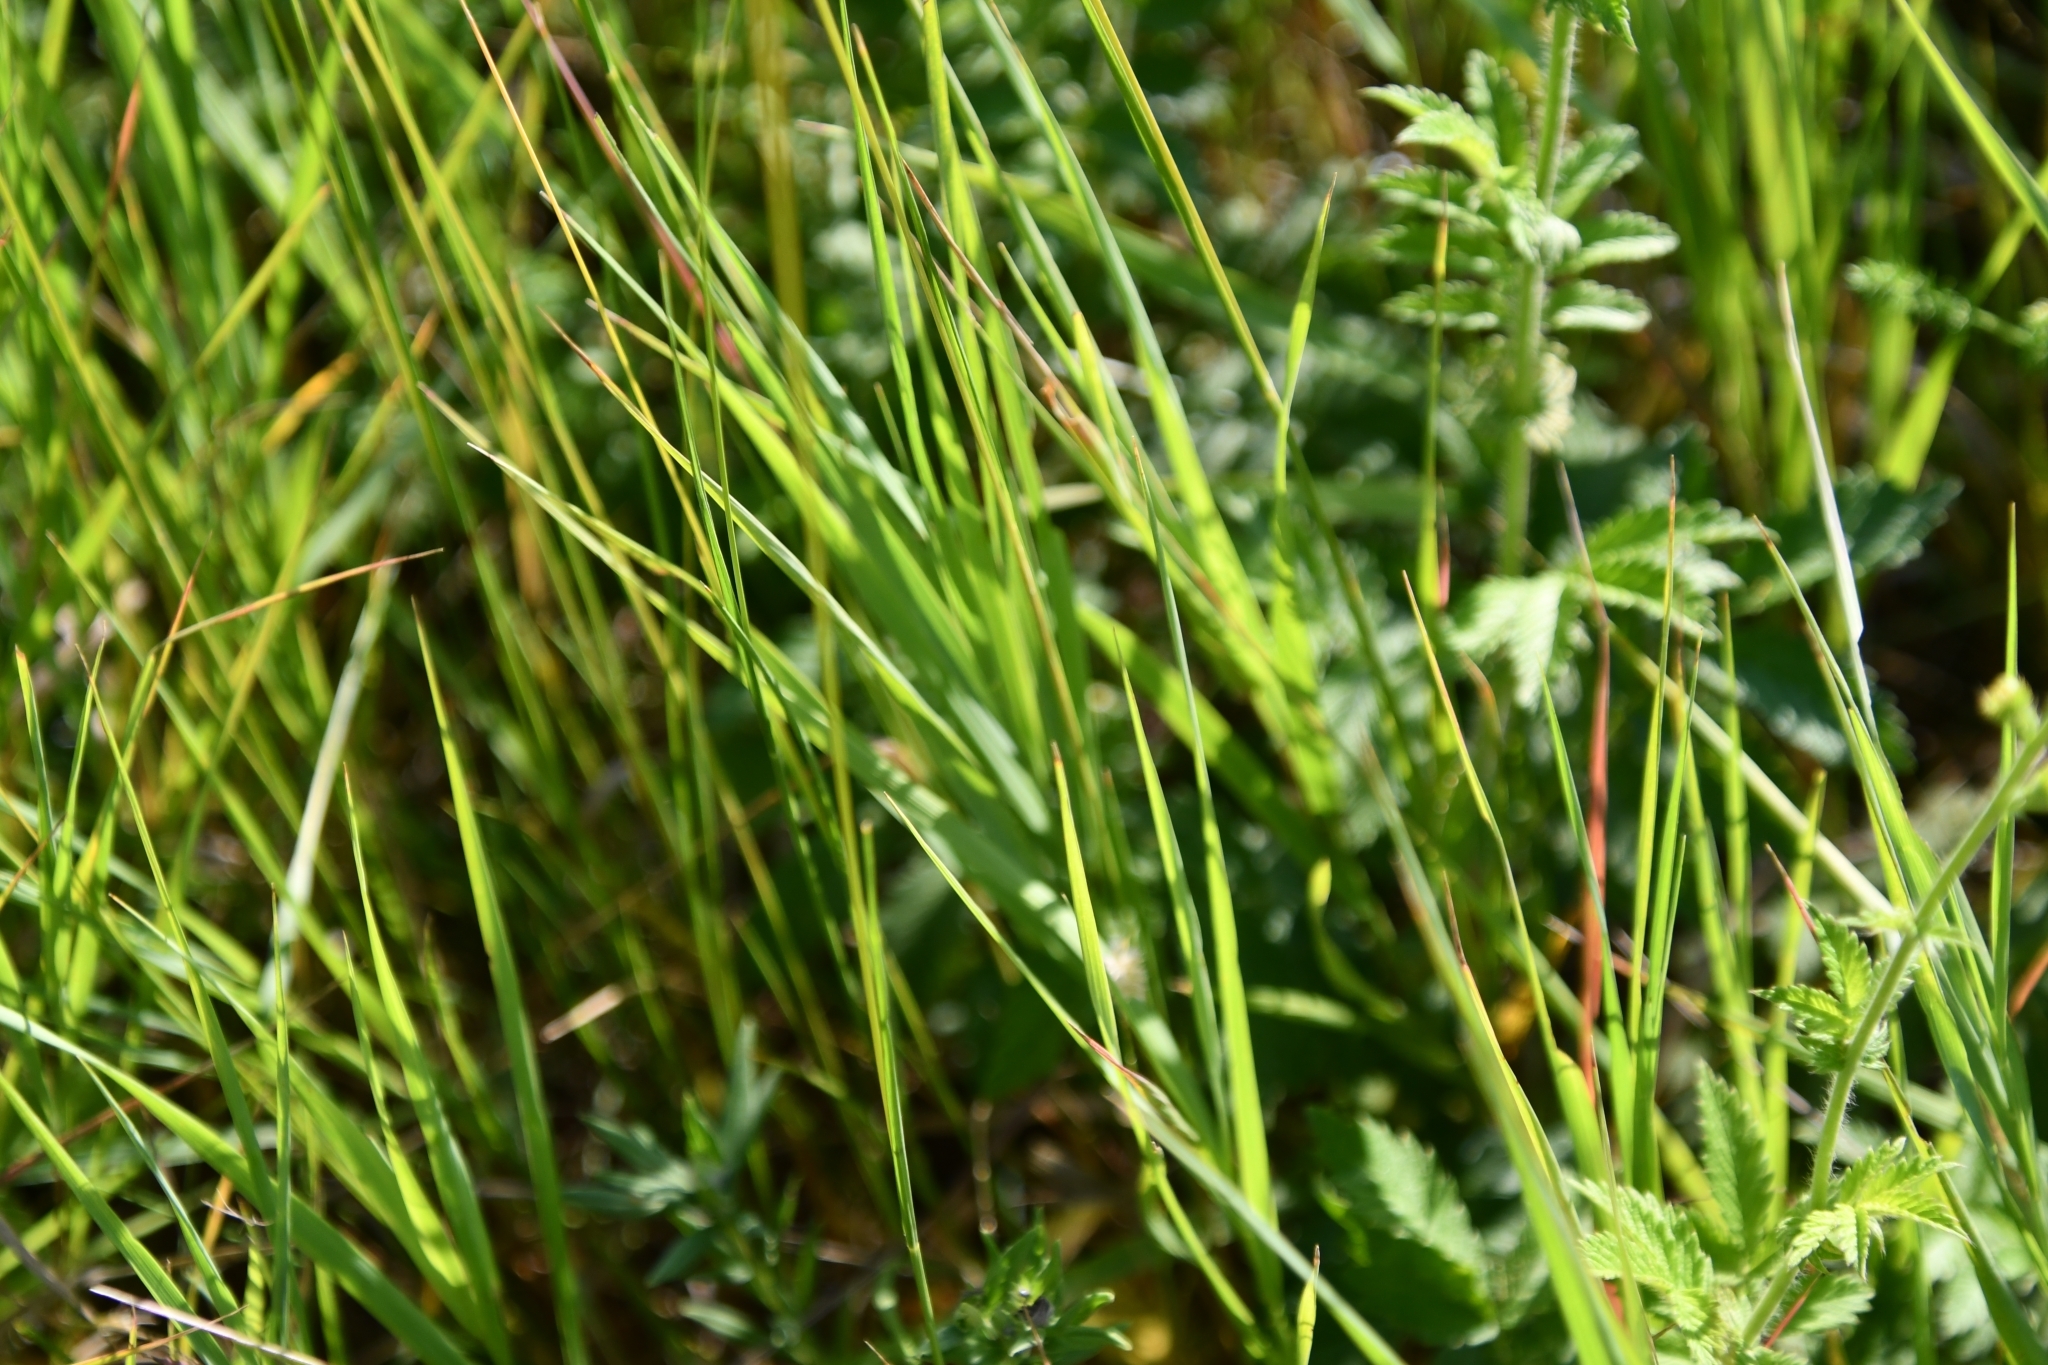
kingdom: Plantae
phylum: Tracheophyta
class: Liliopsida
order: Poales
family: Poaceae
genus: Melica
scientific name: Melica transsilvanica
